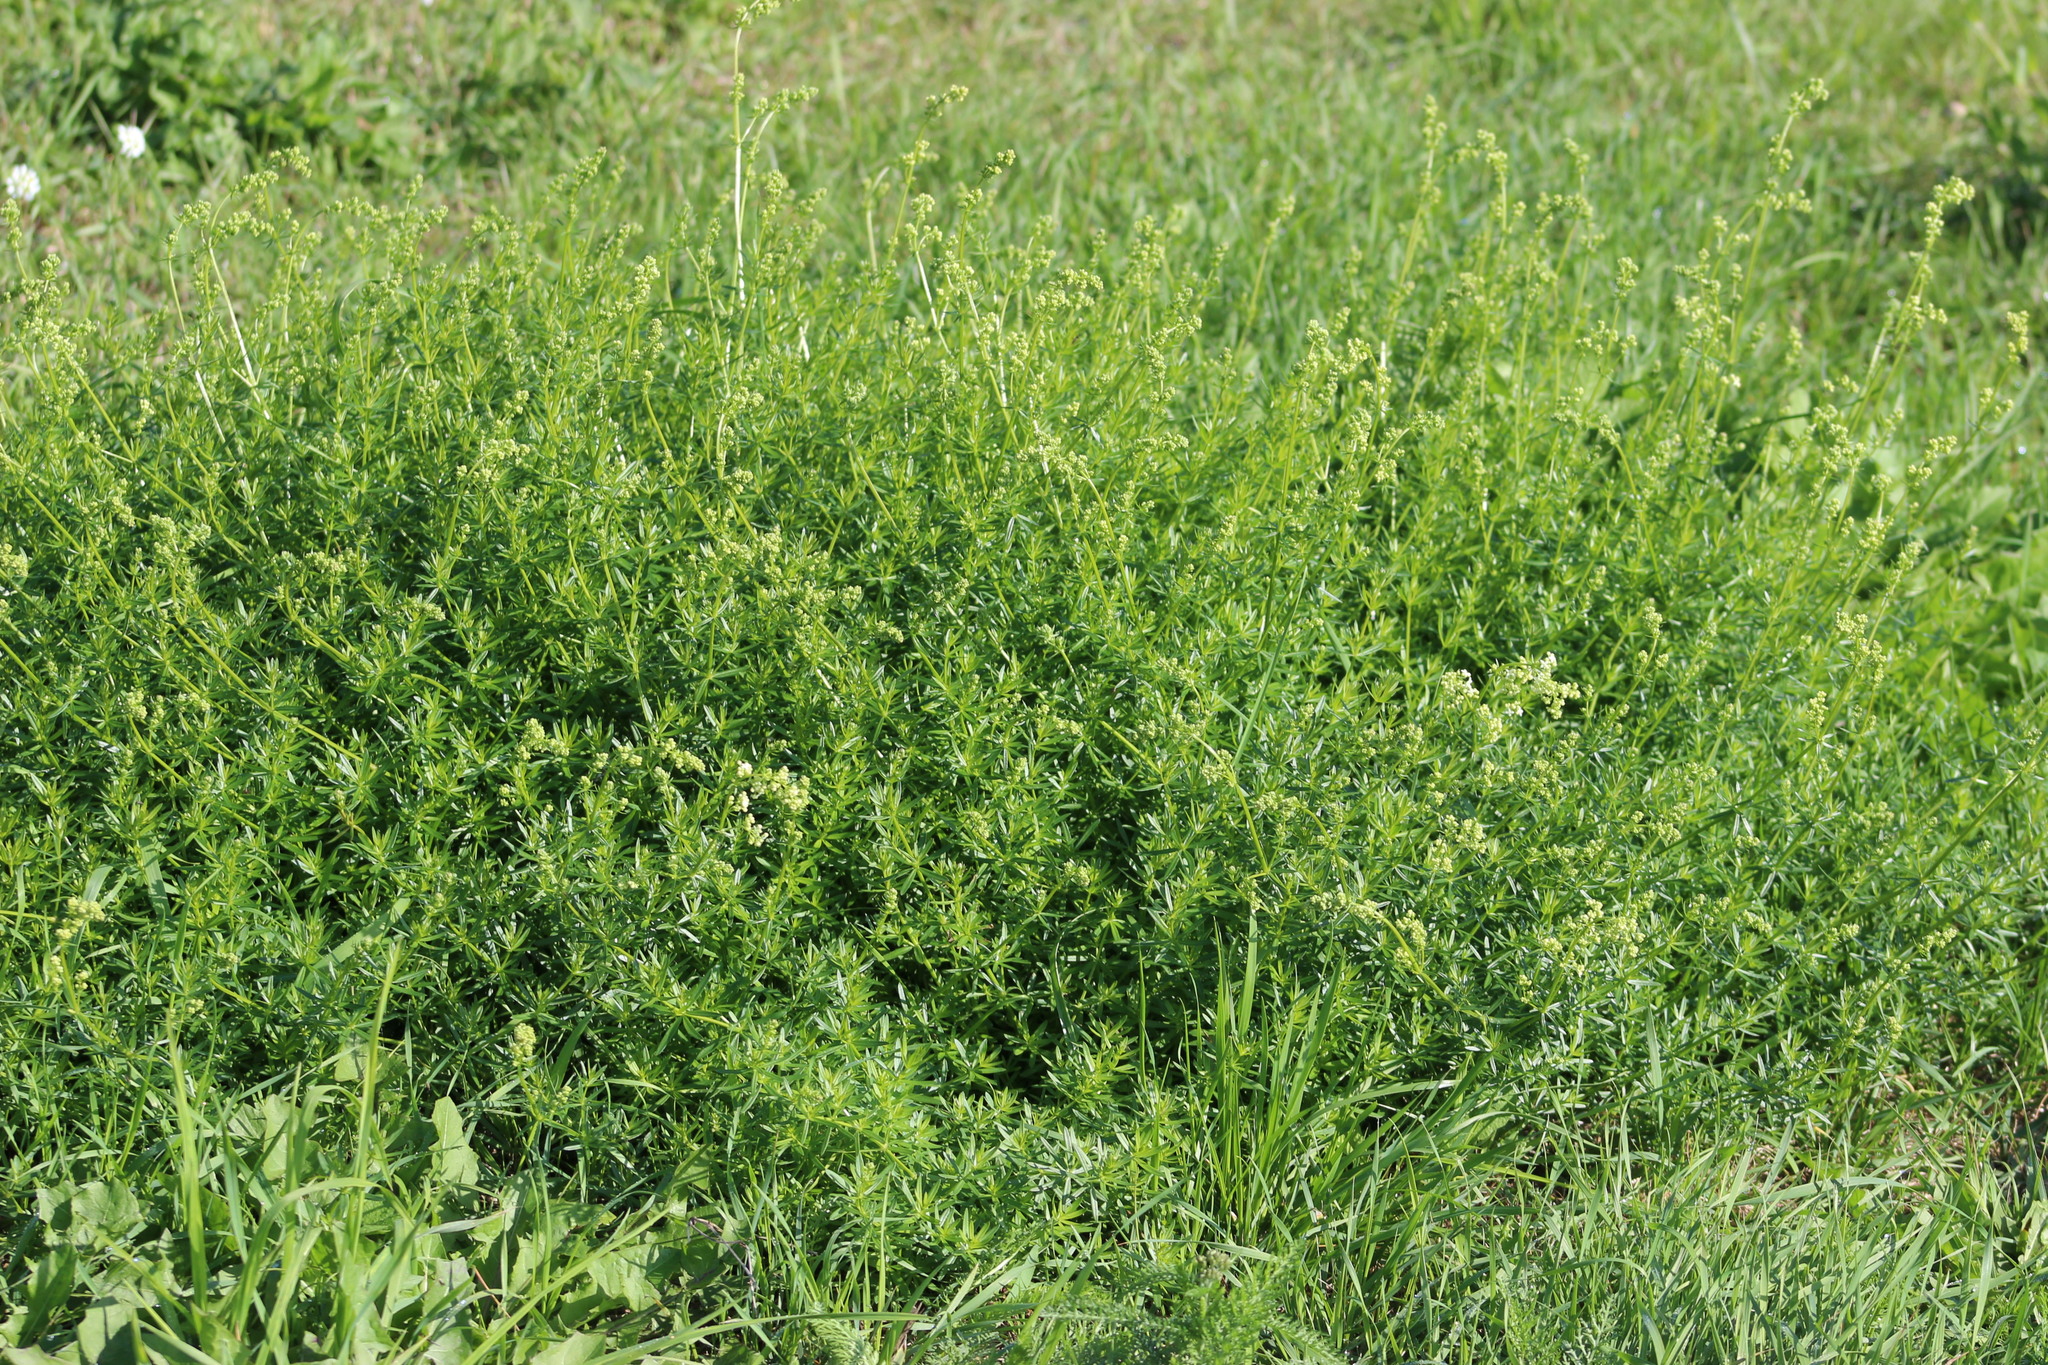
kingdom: Plantae
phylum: Tracheophyta
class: Magnoliopsida
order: Gentianales
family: Rubiaceae
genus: Galium
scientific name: Galium mollugo
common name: Hedge bedstraw
